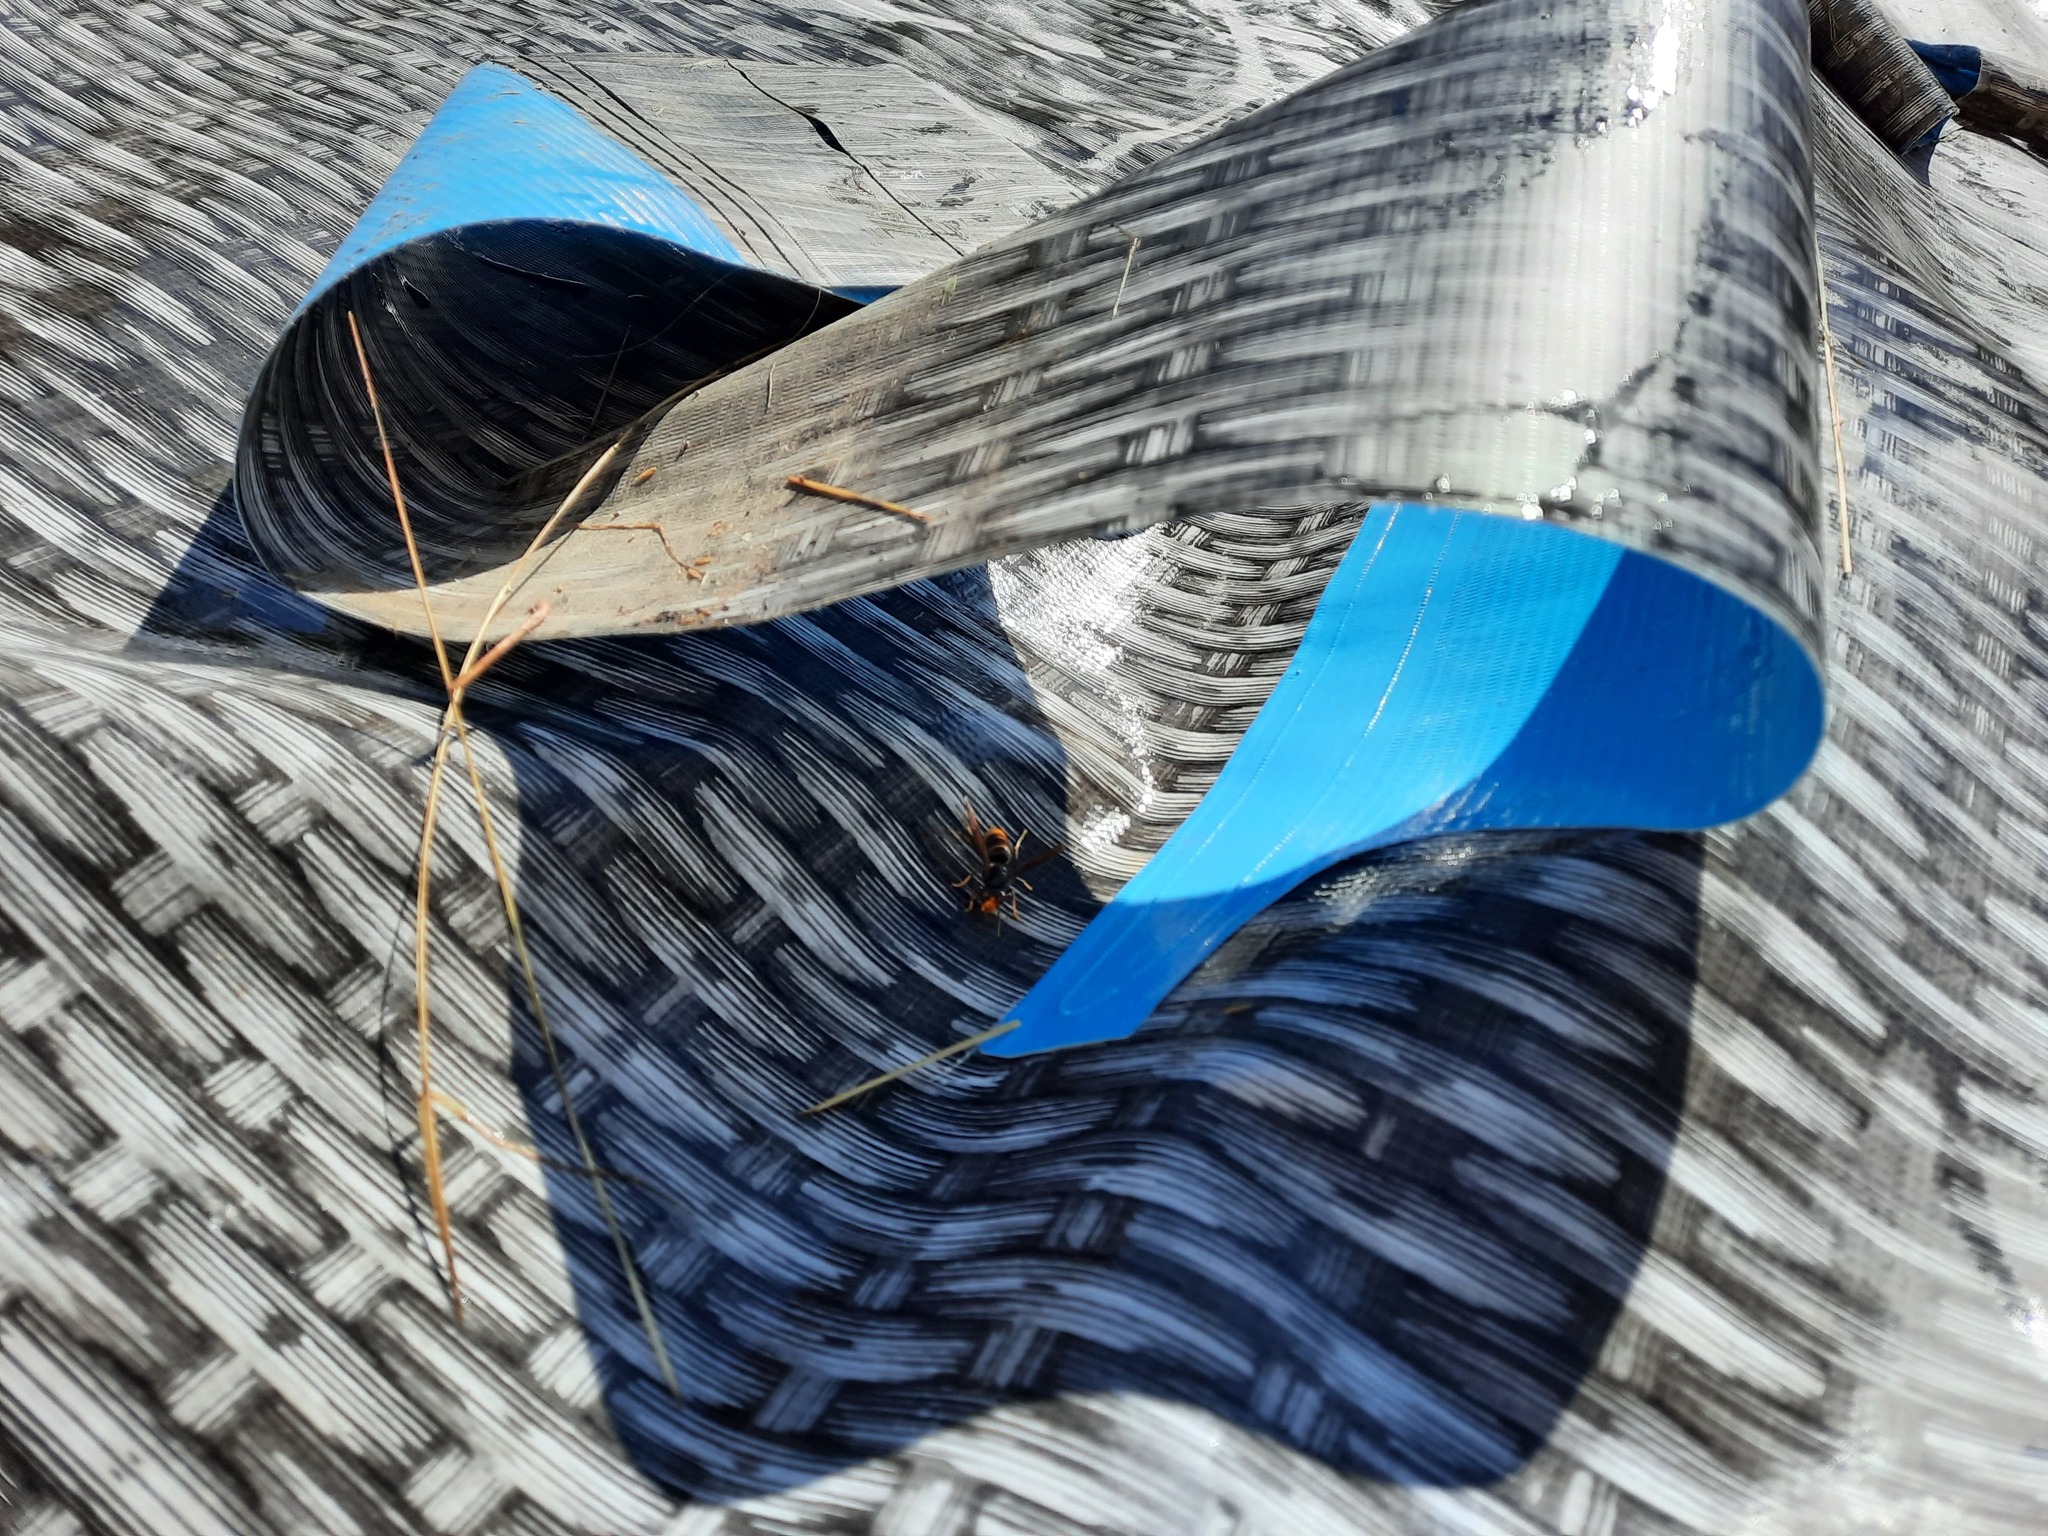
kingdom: Animalia
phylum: Arthropoda
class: Insecta
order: Hymenoptera
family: Vespidae
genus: Vespa
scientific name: Vespa velutina
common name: Asian hornet
